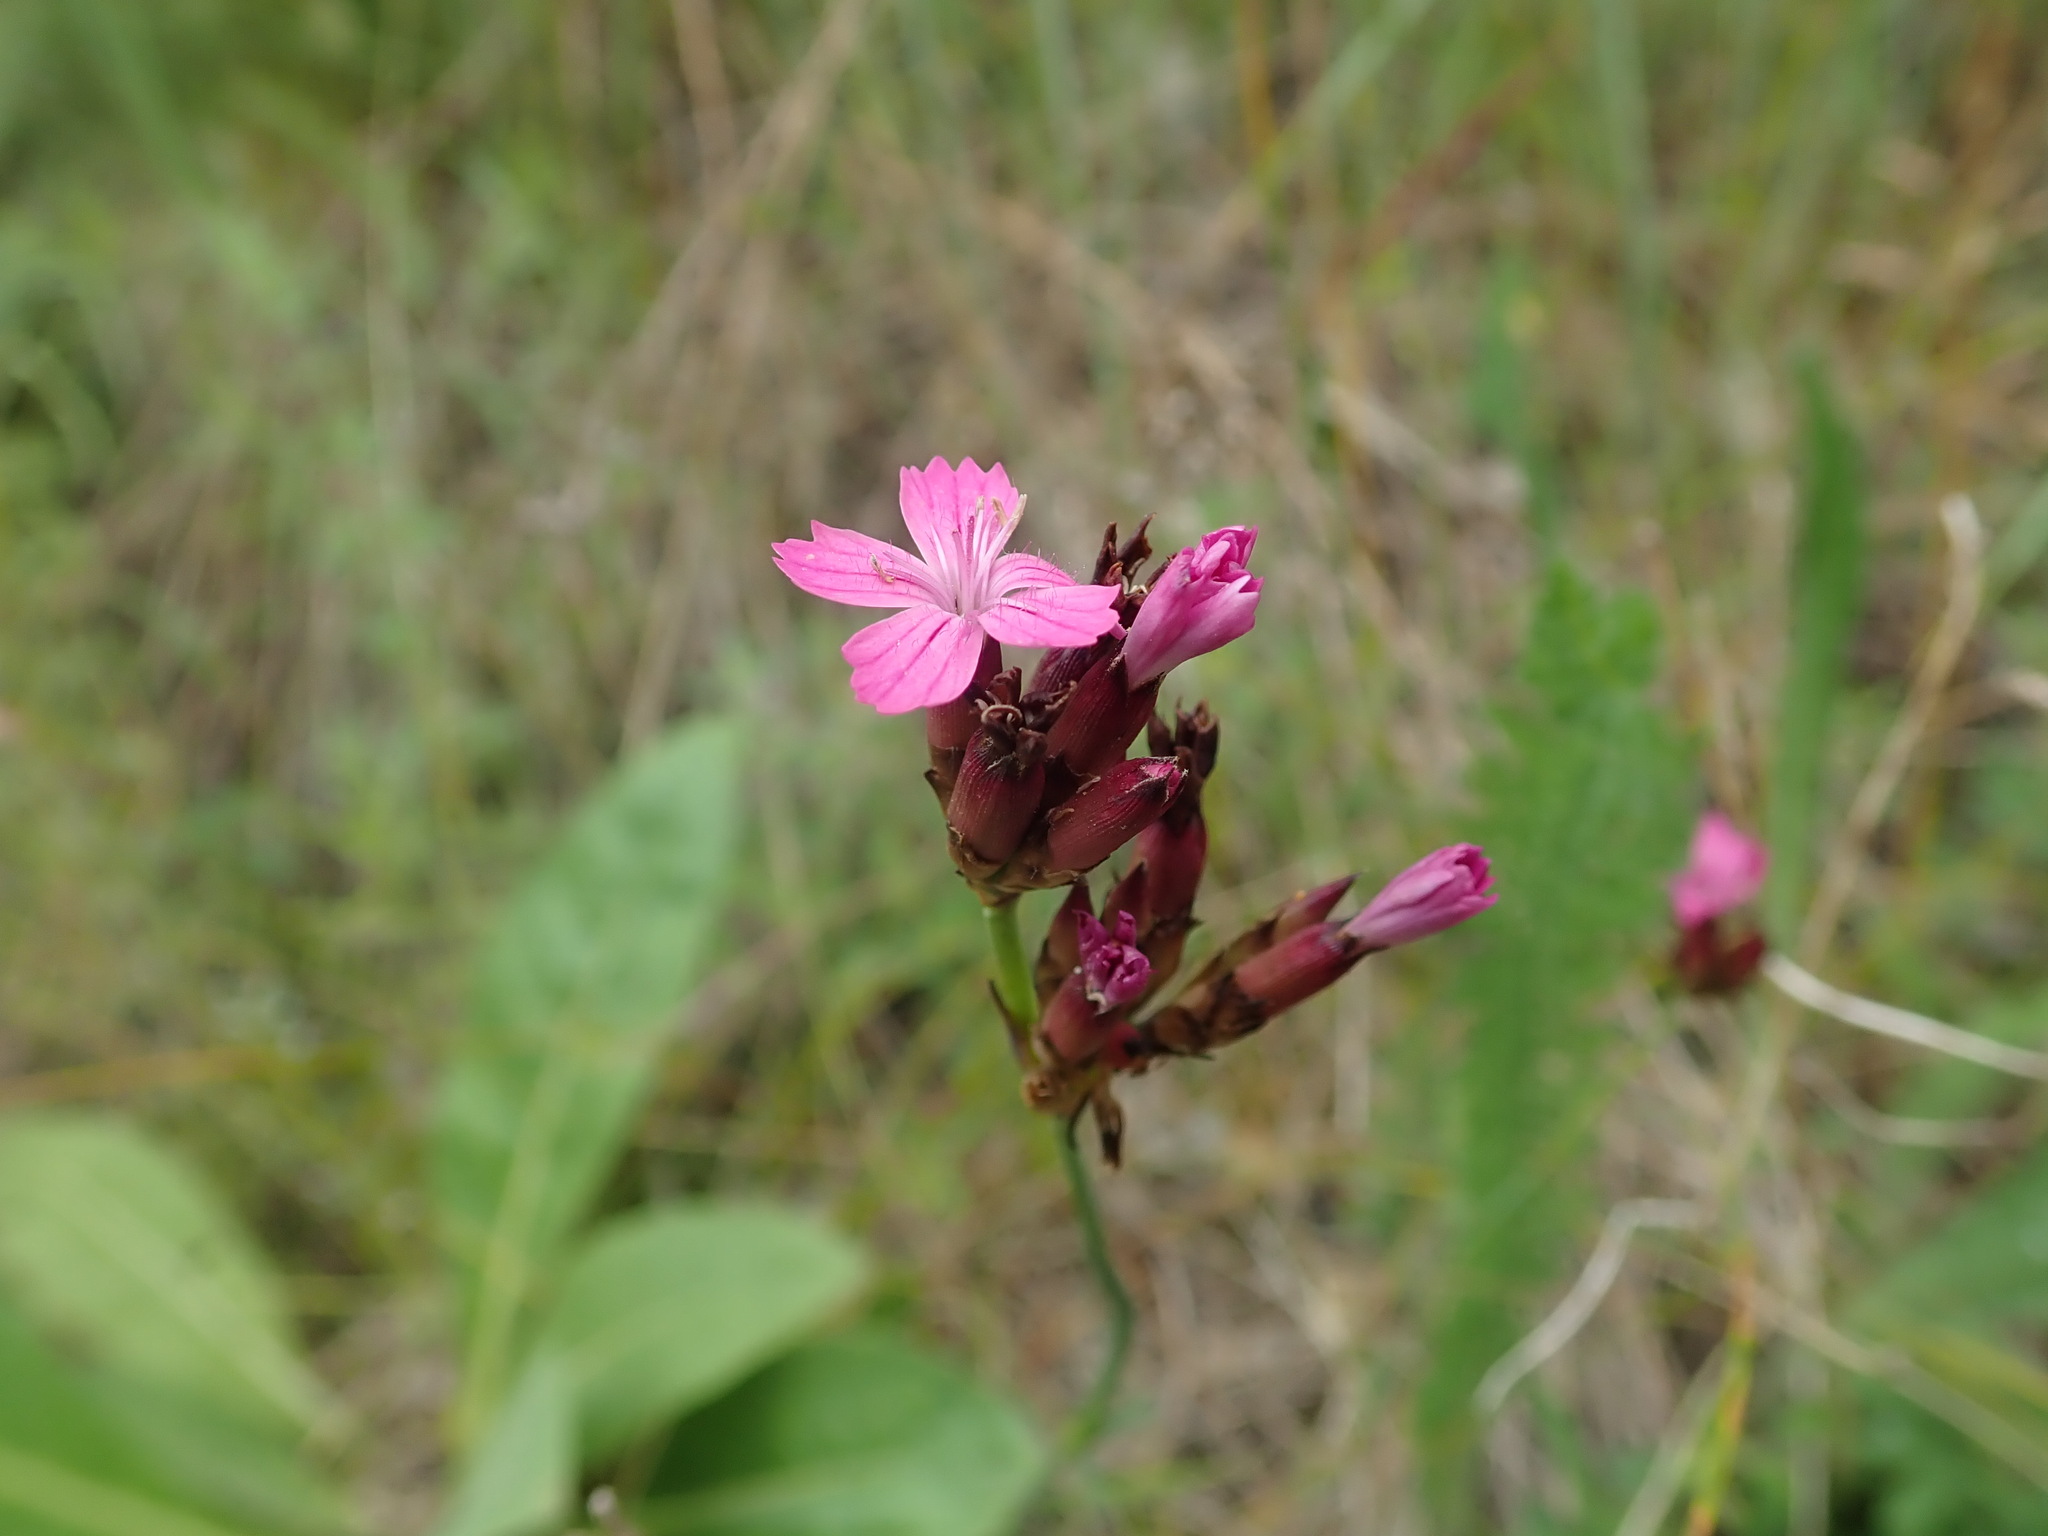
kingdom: Plantae
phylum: Tracheophyta
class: Magnoliopsida
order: Caryophyllales
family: Caryophyllaceae
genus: Dianthus
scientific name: Dianthus carthusianorum
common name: Carthusian pink
